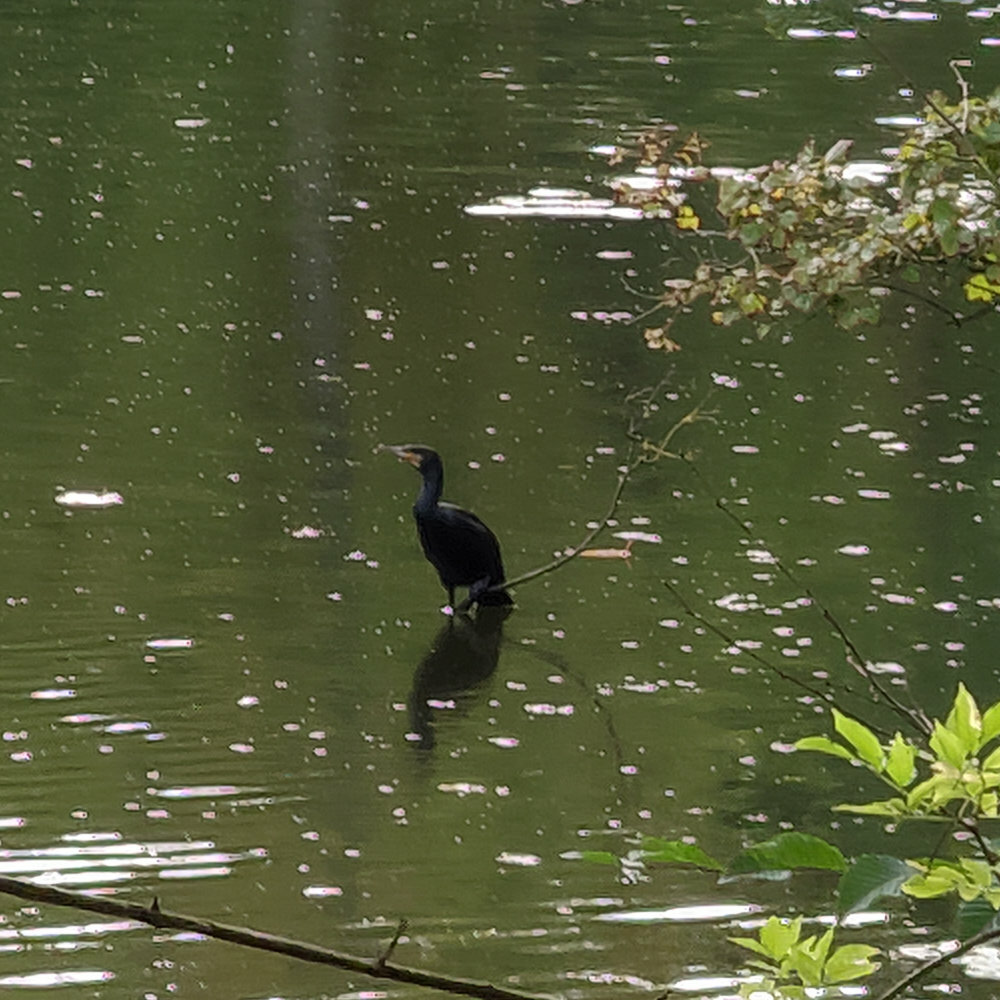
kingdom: Animalia
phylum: Chordata
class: Aves
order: Suliformes
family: Phalacrocoracidae
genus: Phalacrocorax
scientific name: Phalacrocorax carbo
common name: Great cormorant
